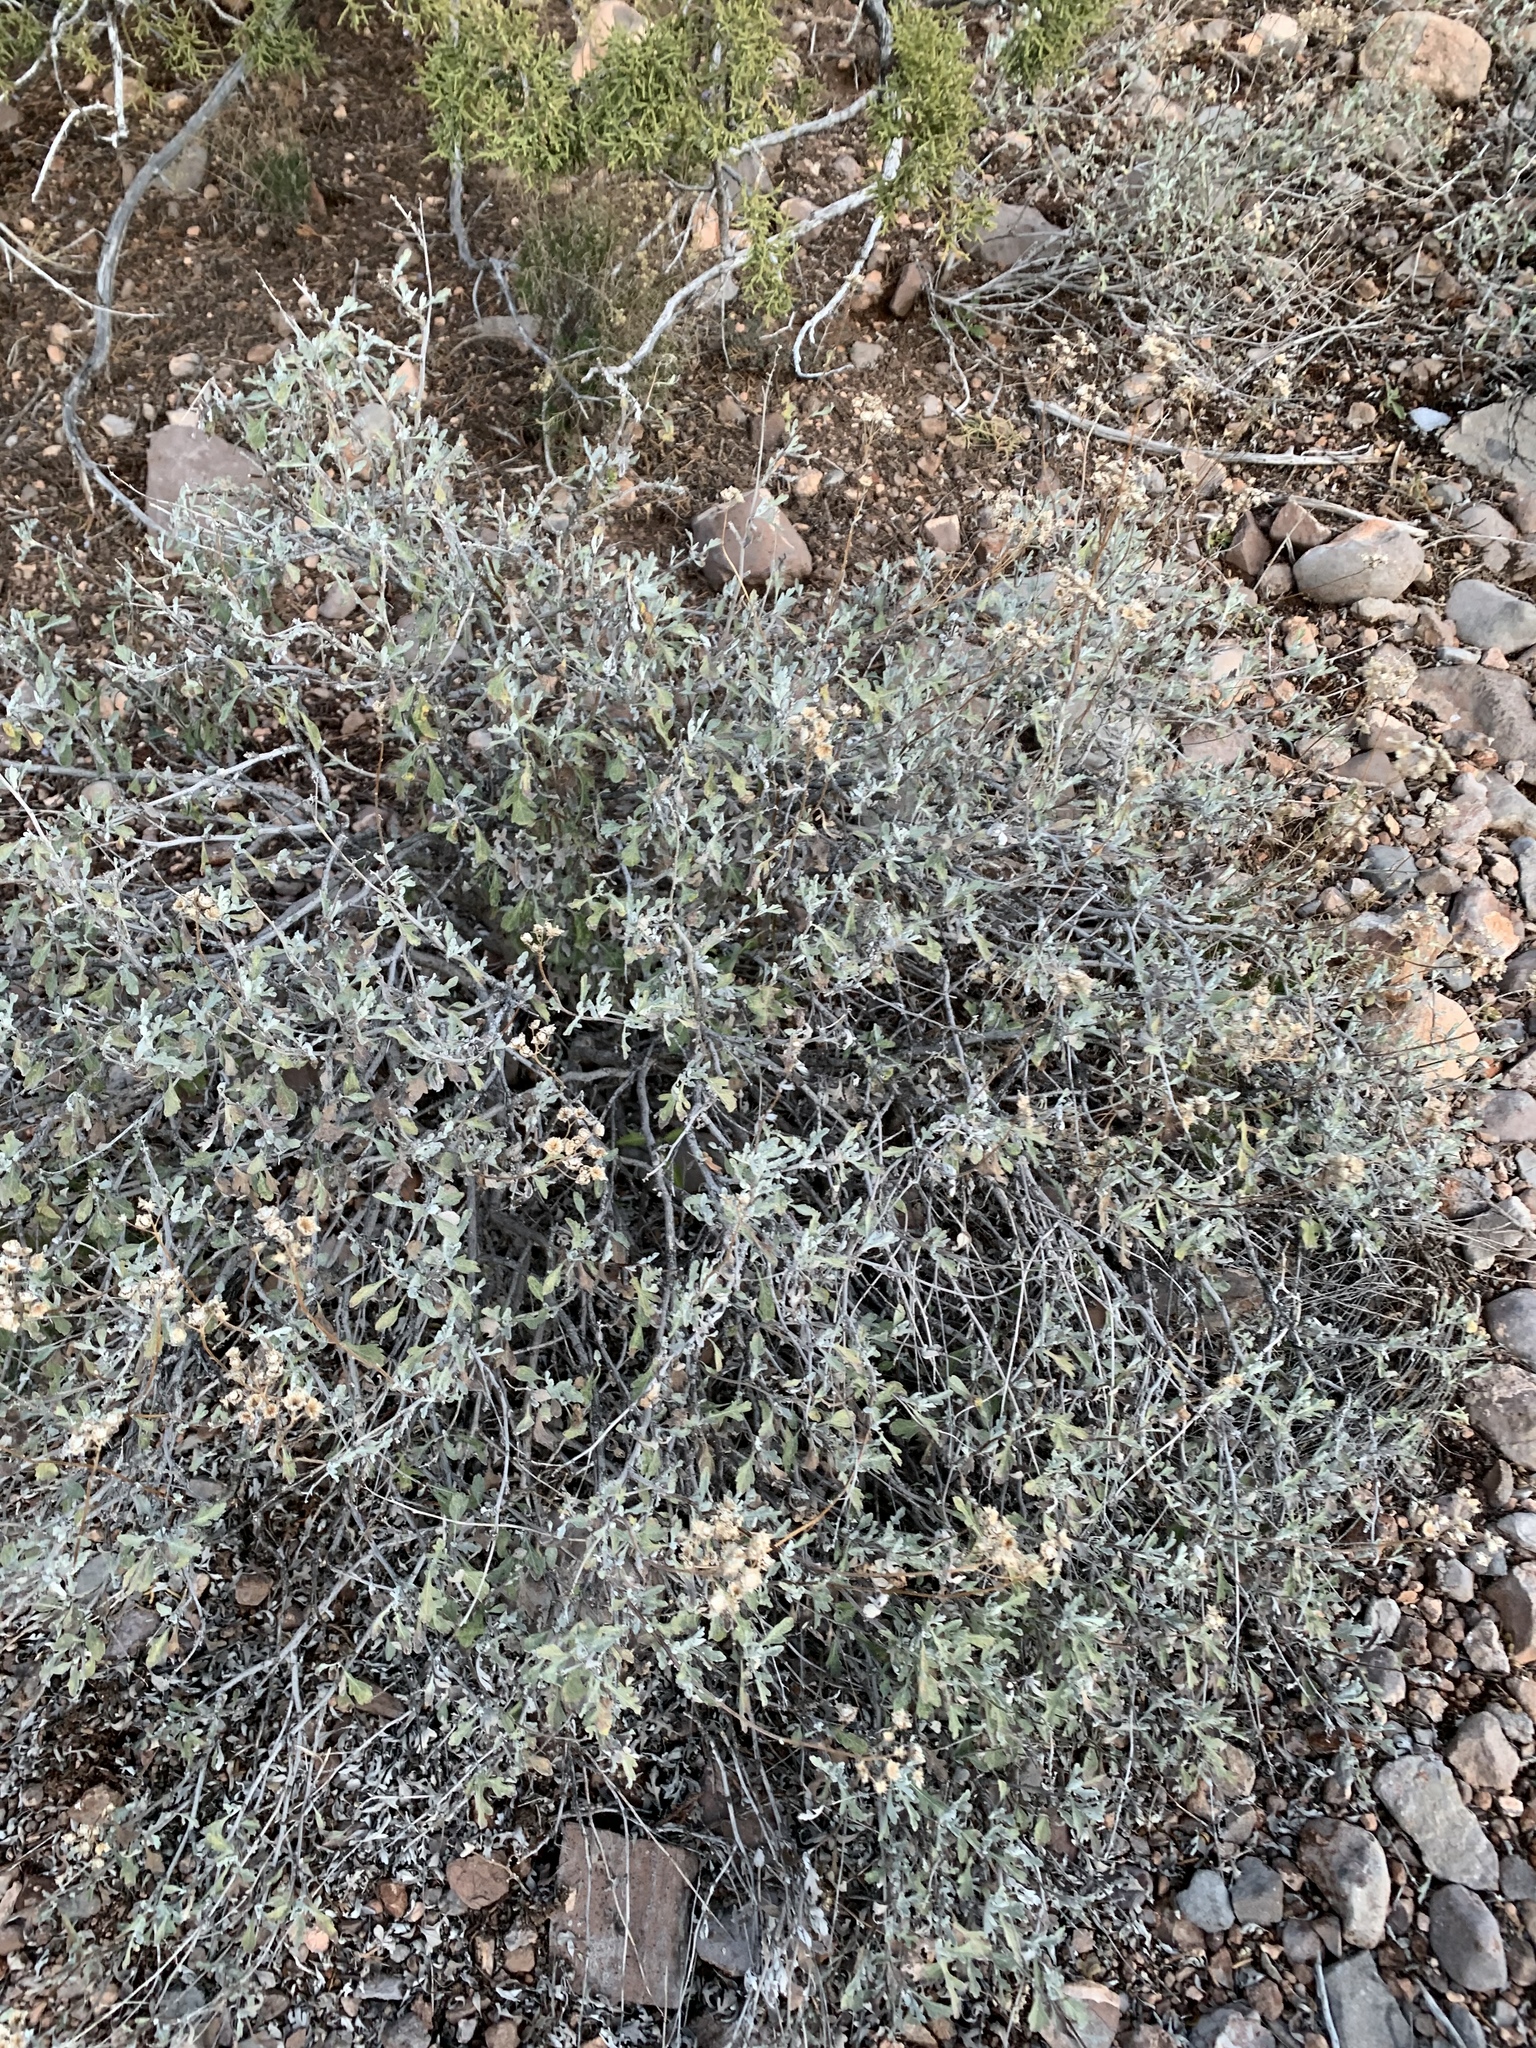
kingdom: Plantae
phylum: Tracheophyta
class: Magnoliopsida
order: Asterales
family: Asteraceae
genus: Parthenium
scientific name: Parthenium incanum
